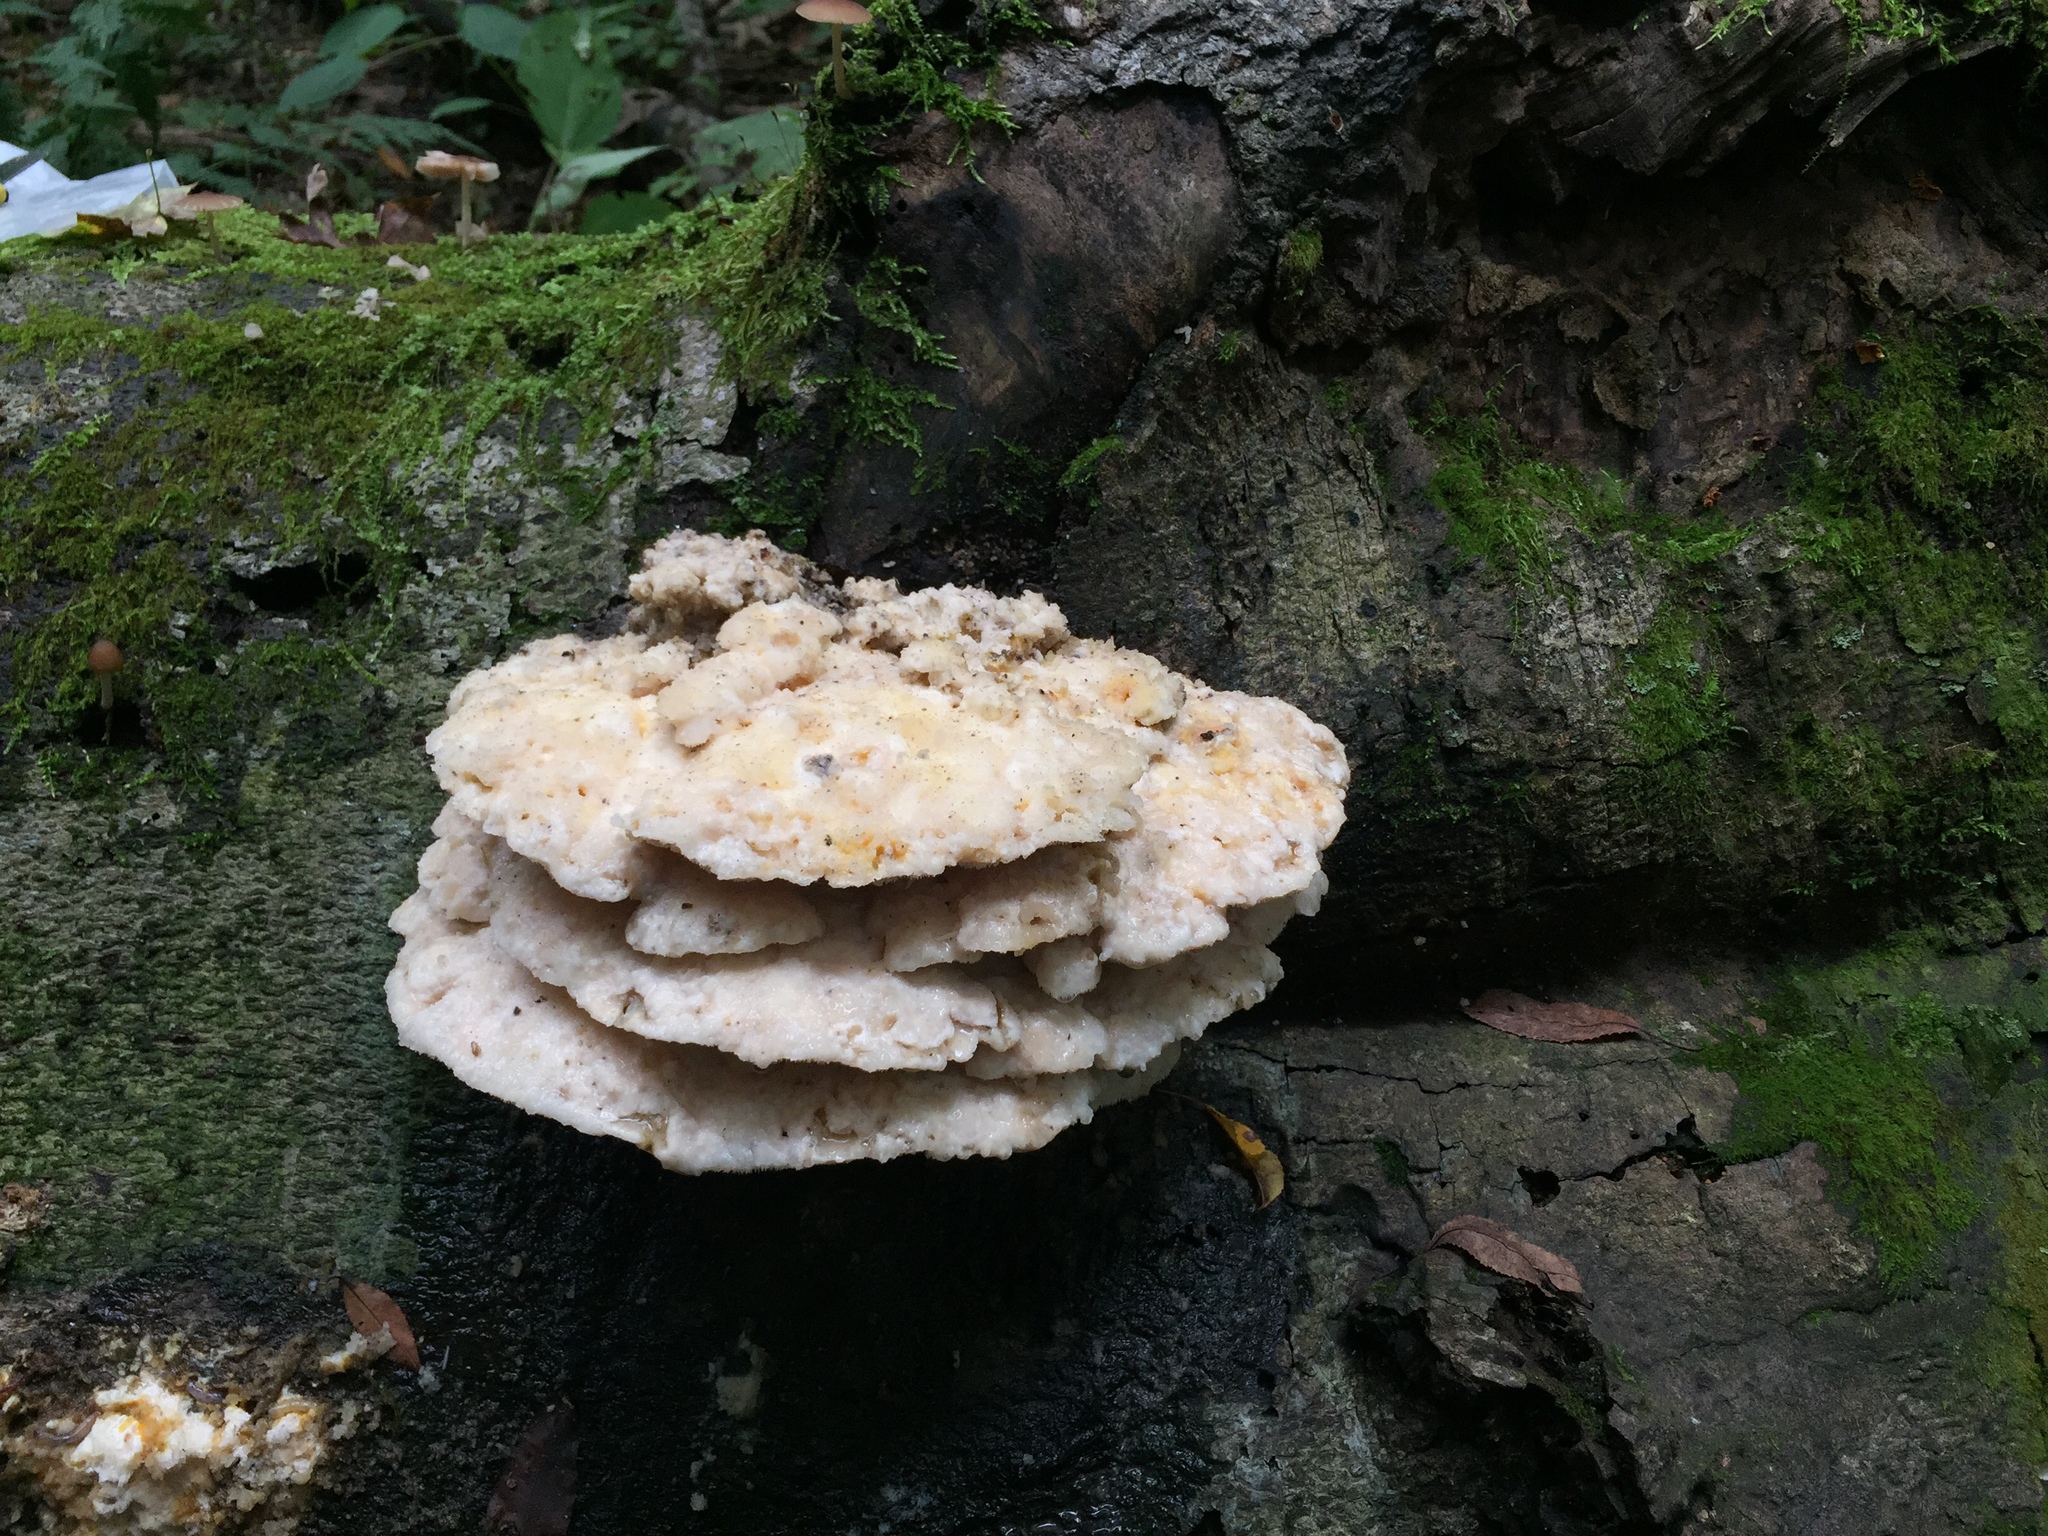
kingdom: Fungi
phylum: Basidiomycota
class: Agaricomycetes
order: Polyporales
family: Meruliaceae
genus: Climacodon
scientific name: Climacodon septentrionalis
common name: Northern tooth
